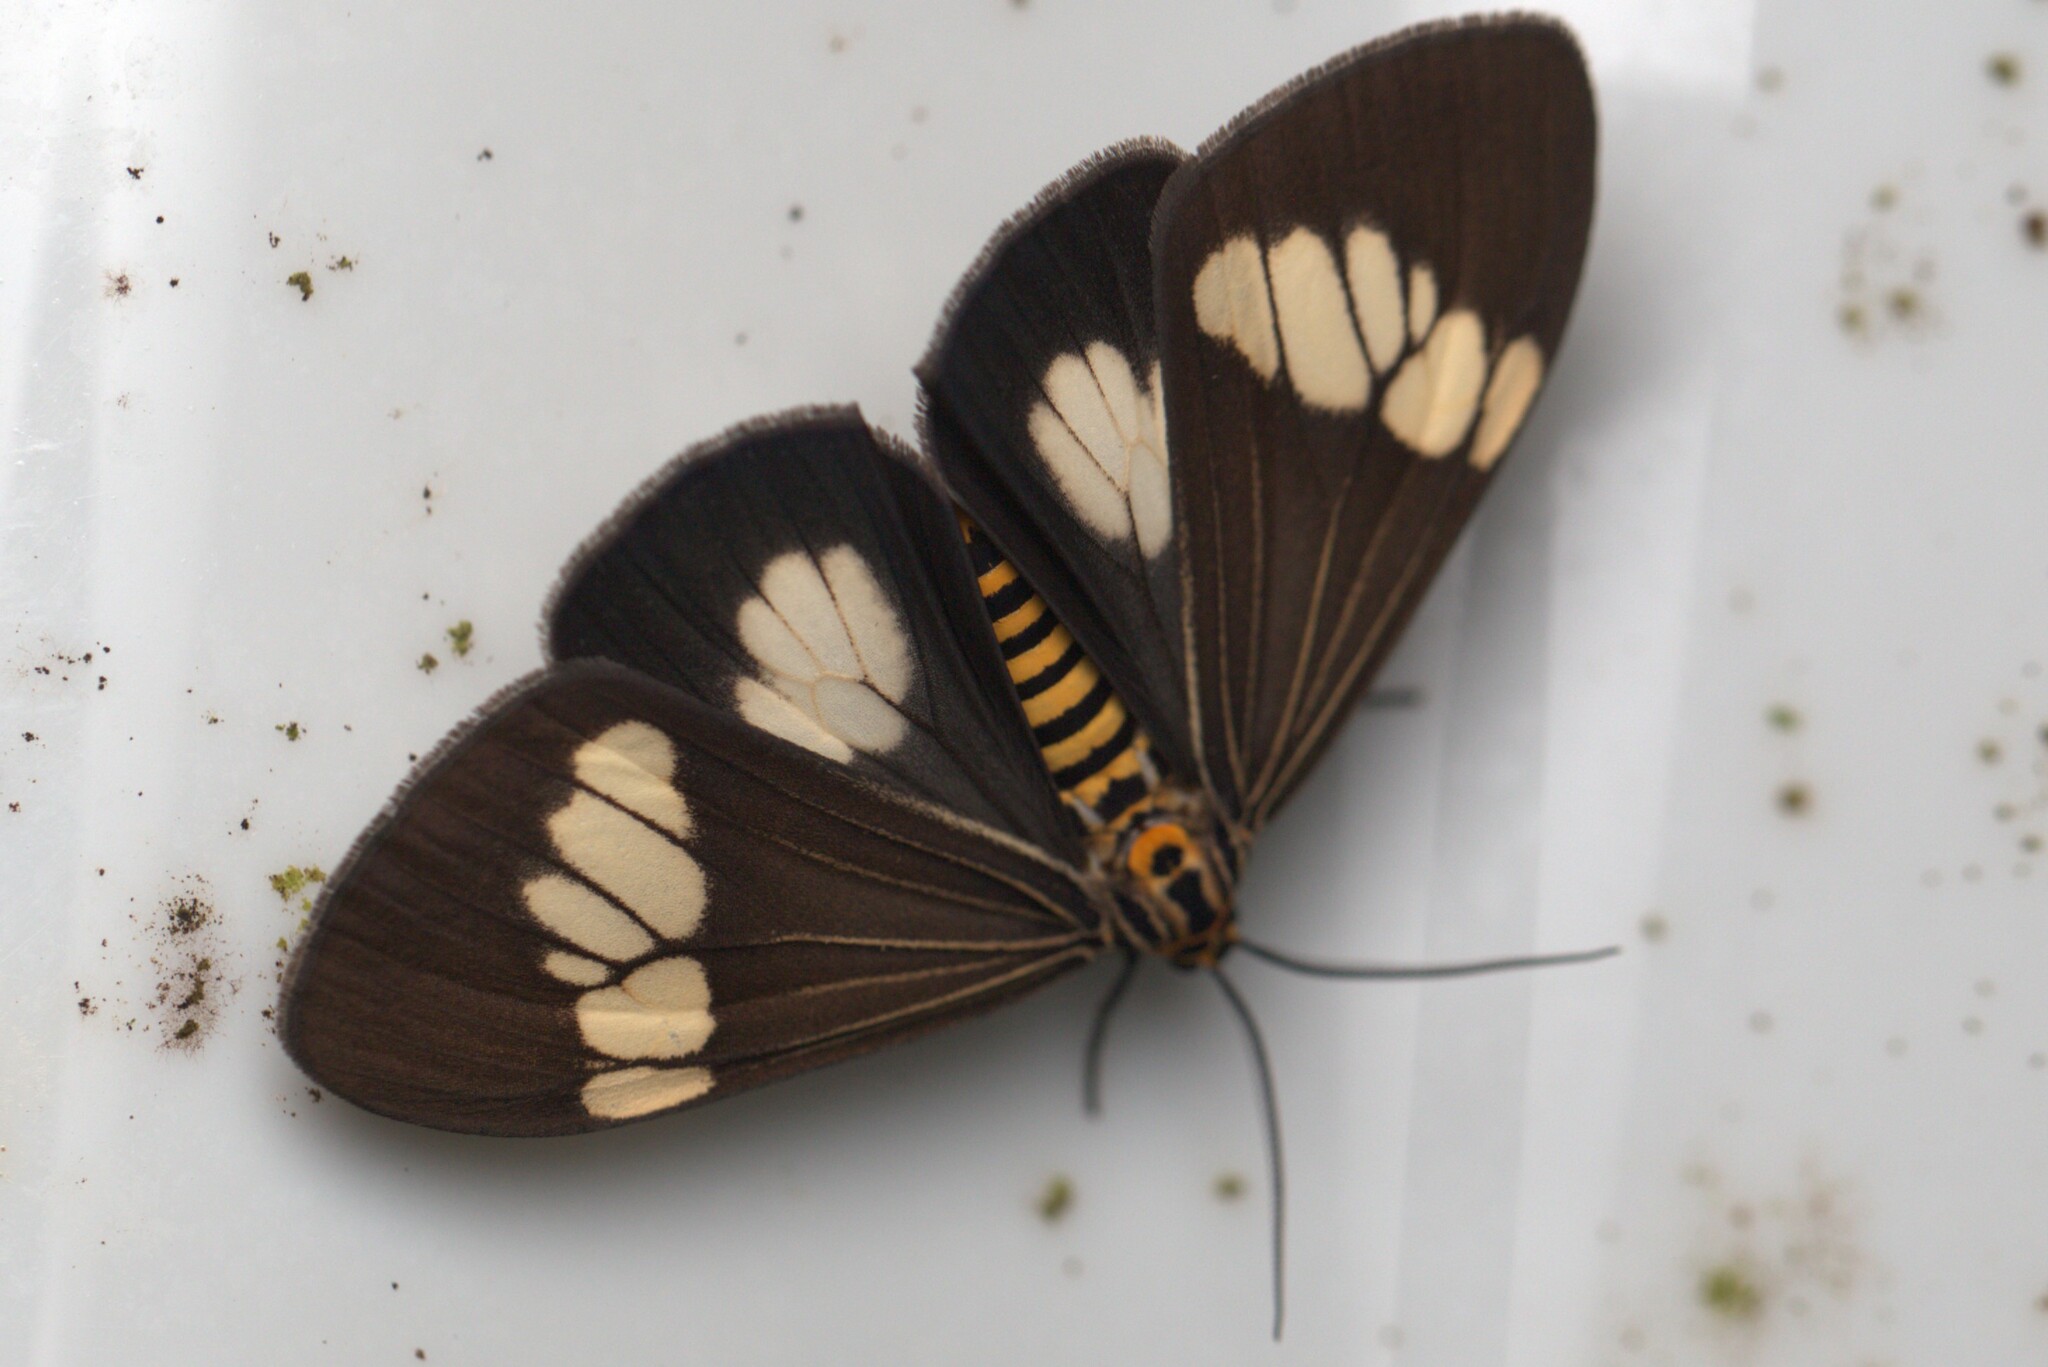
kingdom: Animalia
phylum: Arthropoda
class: Insecta
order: Lepidoptera
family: Erebidae
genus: Nyctemera
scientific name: Nyctemera baulus
